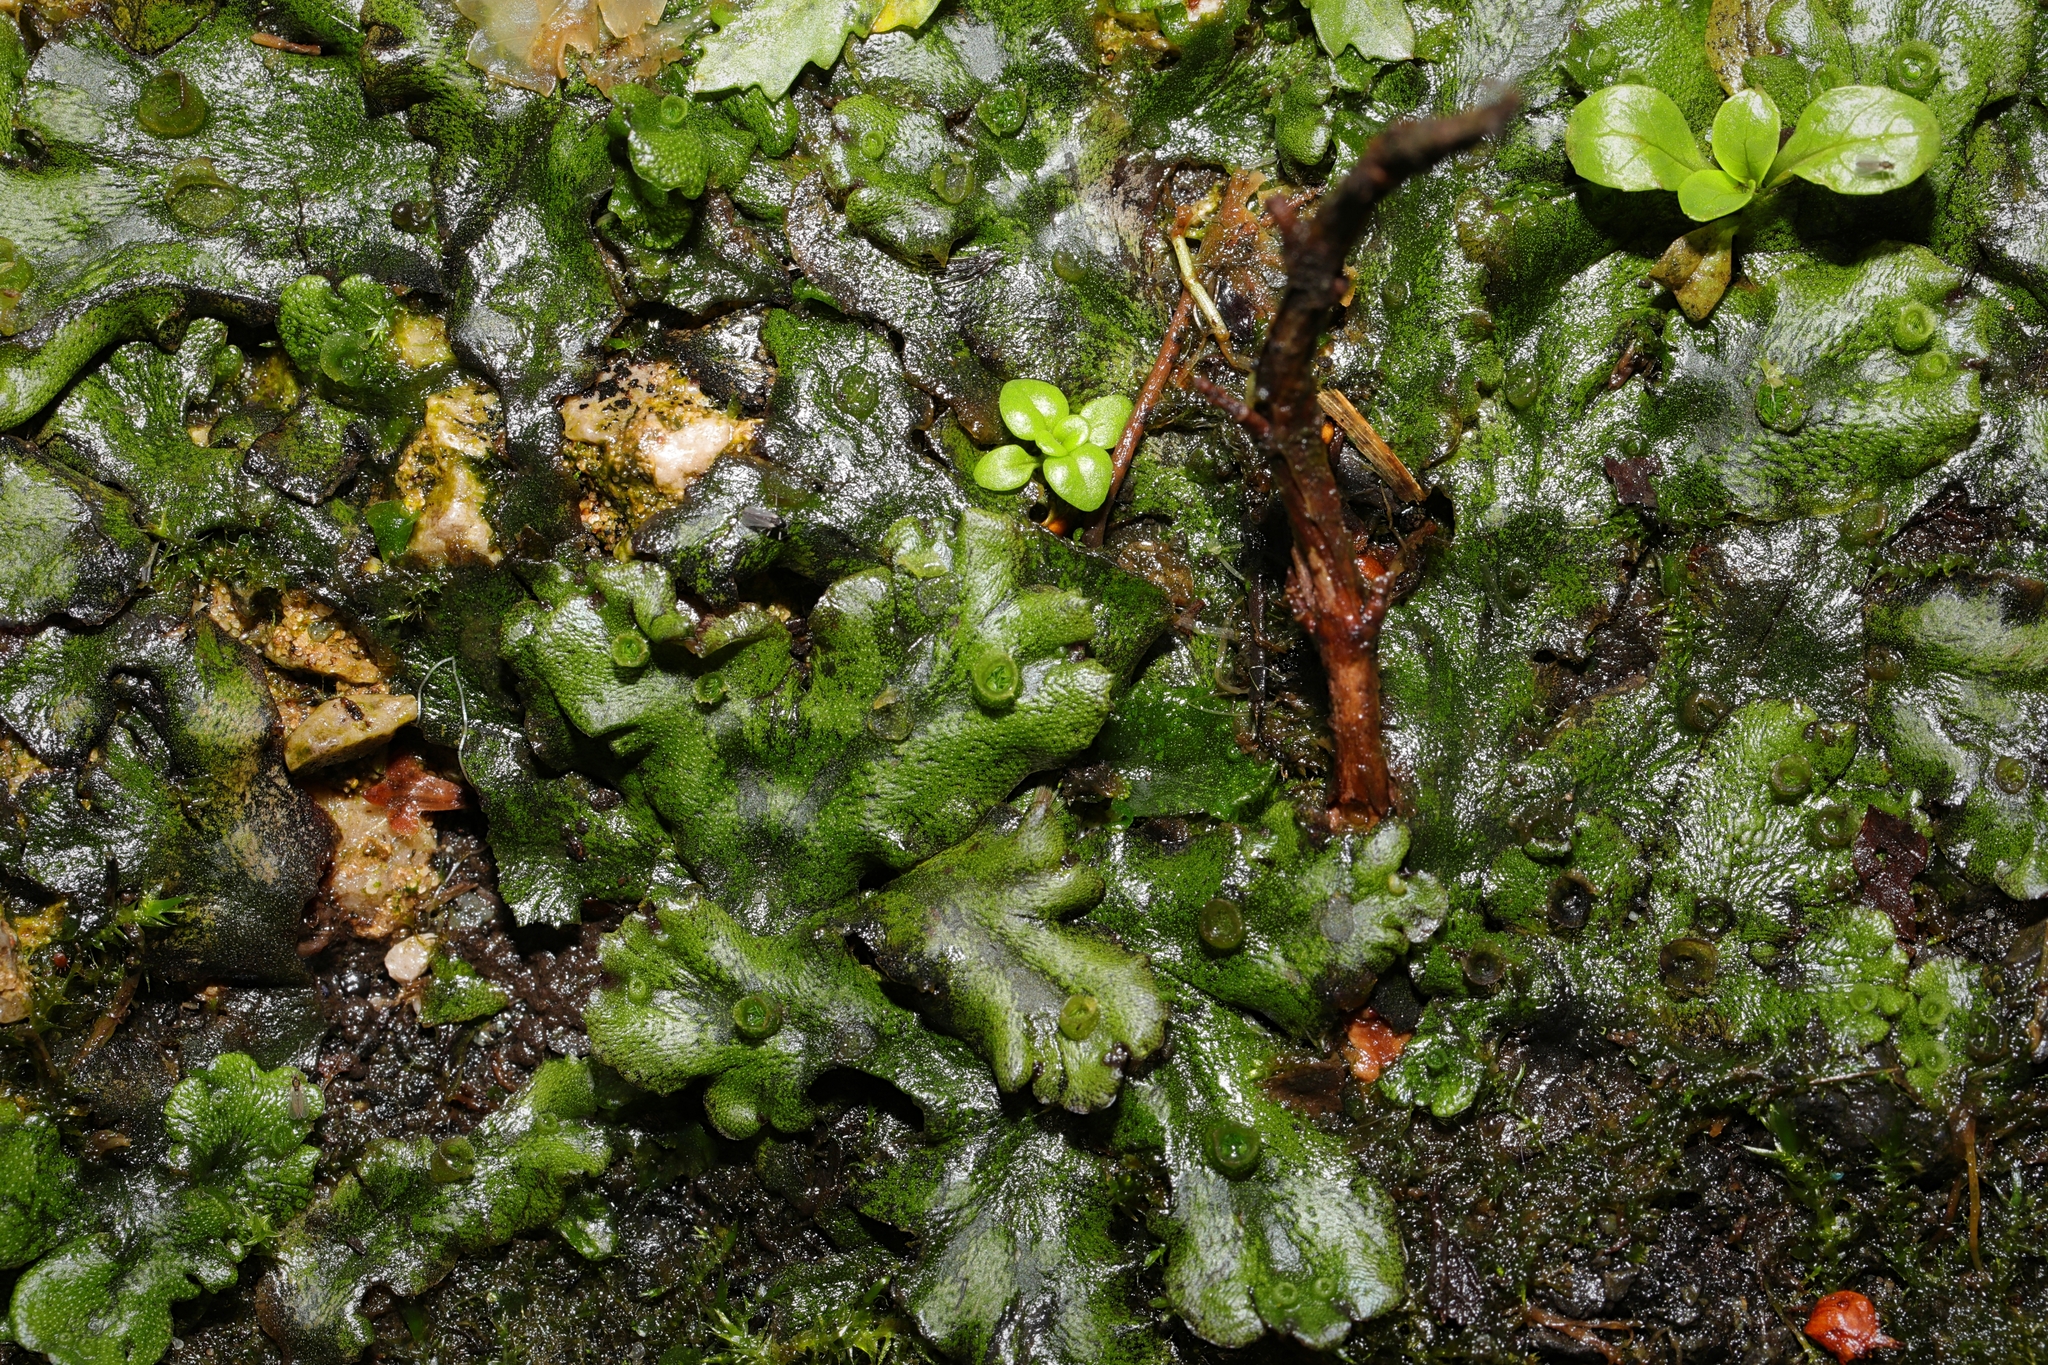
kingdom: Plantae
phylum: Marchantiophyta
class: Marchantiopsida
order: Marchantiales
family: Marchantiaceae
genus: Marchantia
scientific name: Marchantia polymorpha
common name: Common liverwort
